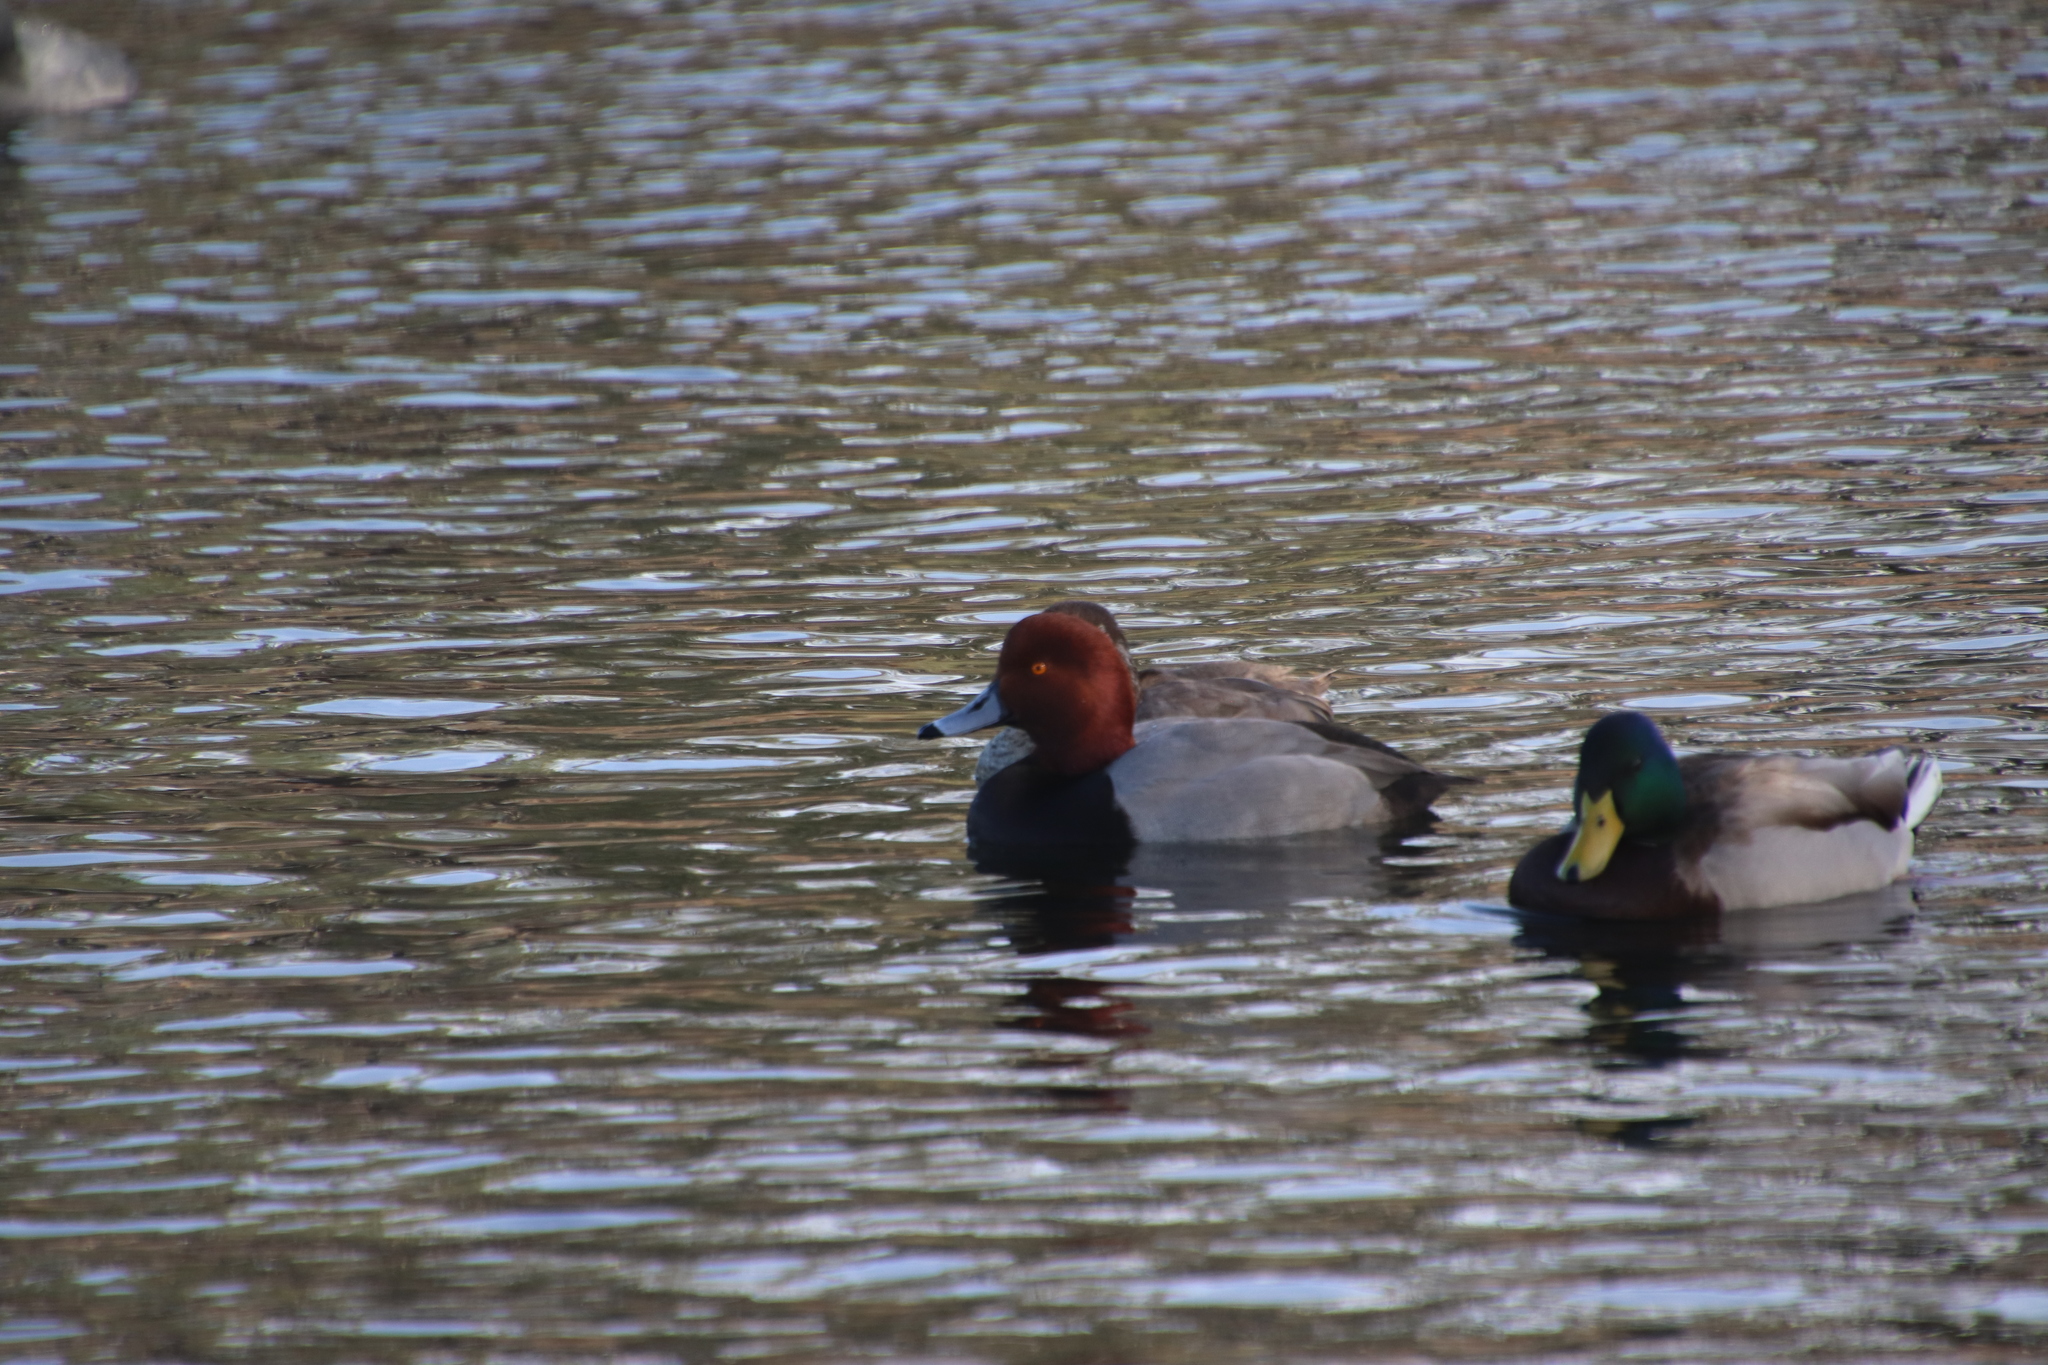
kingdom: Animalia
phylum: Chordata
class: Aves
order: Anseriformes
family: Anatidae
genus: Aythya
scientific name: Aythya americana
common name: Redhead
